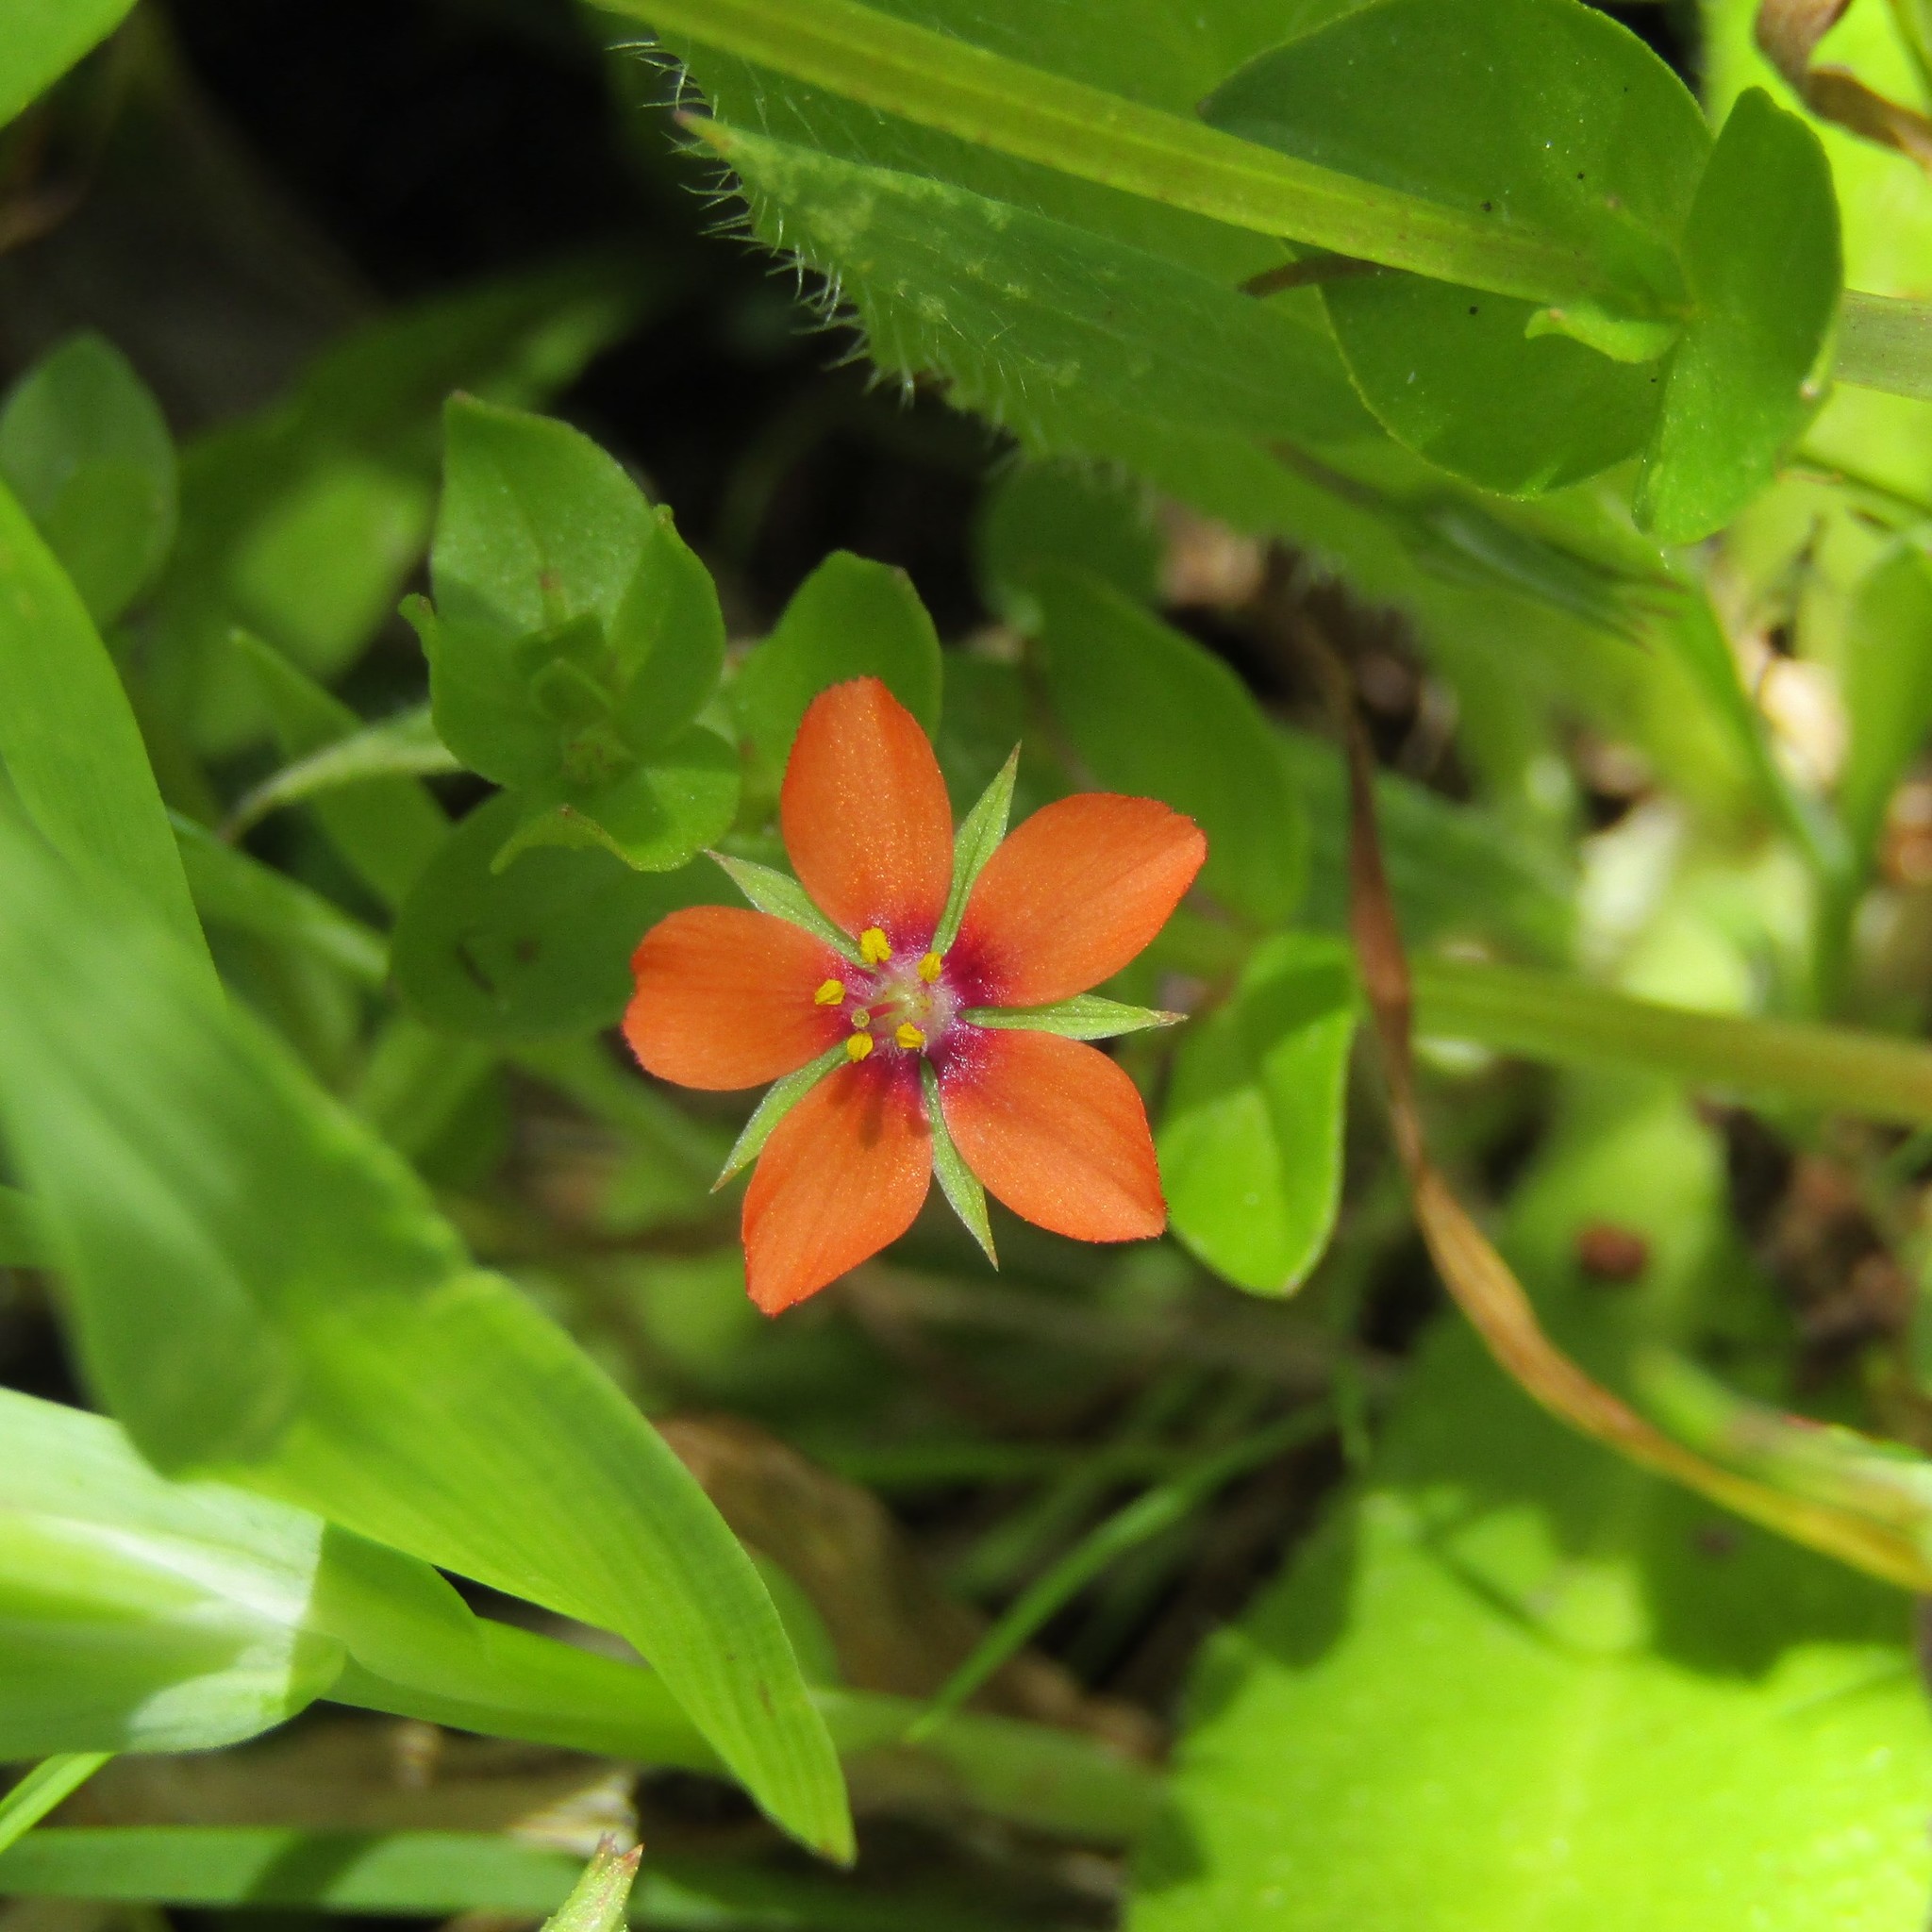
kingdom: Plantae
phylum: Tracheophyta
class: Magnoliopsida
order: Ericales
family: Primulaceae
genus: Lysimachia
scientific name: Lysimachia arvensis
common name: Scarlet pimpernel
